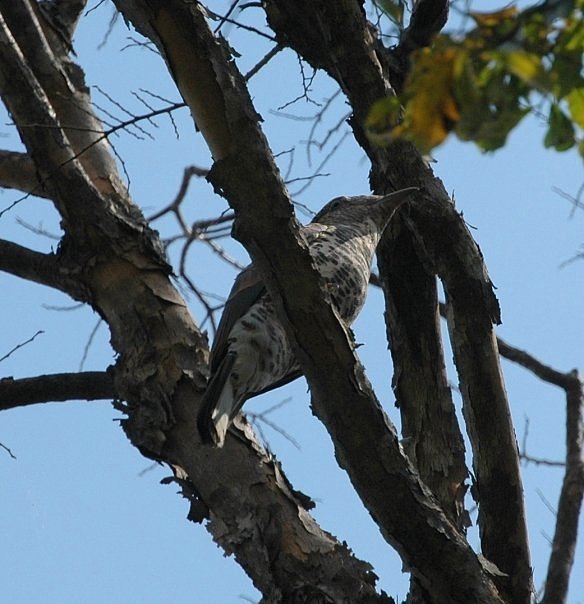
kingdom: Animalia
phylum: Chordata
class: Aves
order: Leptosomiformes
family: Leptosomidae
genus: Leptosomus
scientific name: Leptosomus discolor
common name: Cuckoo roller
